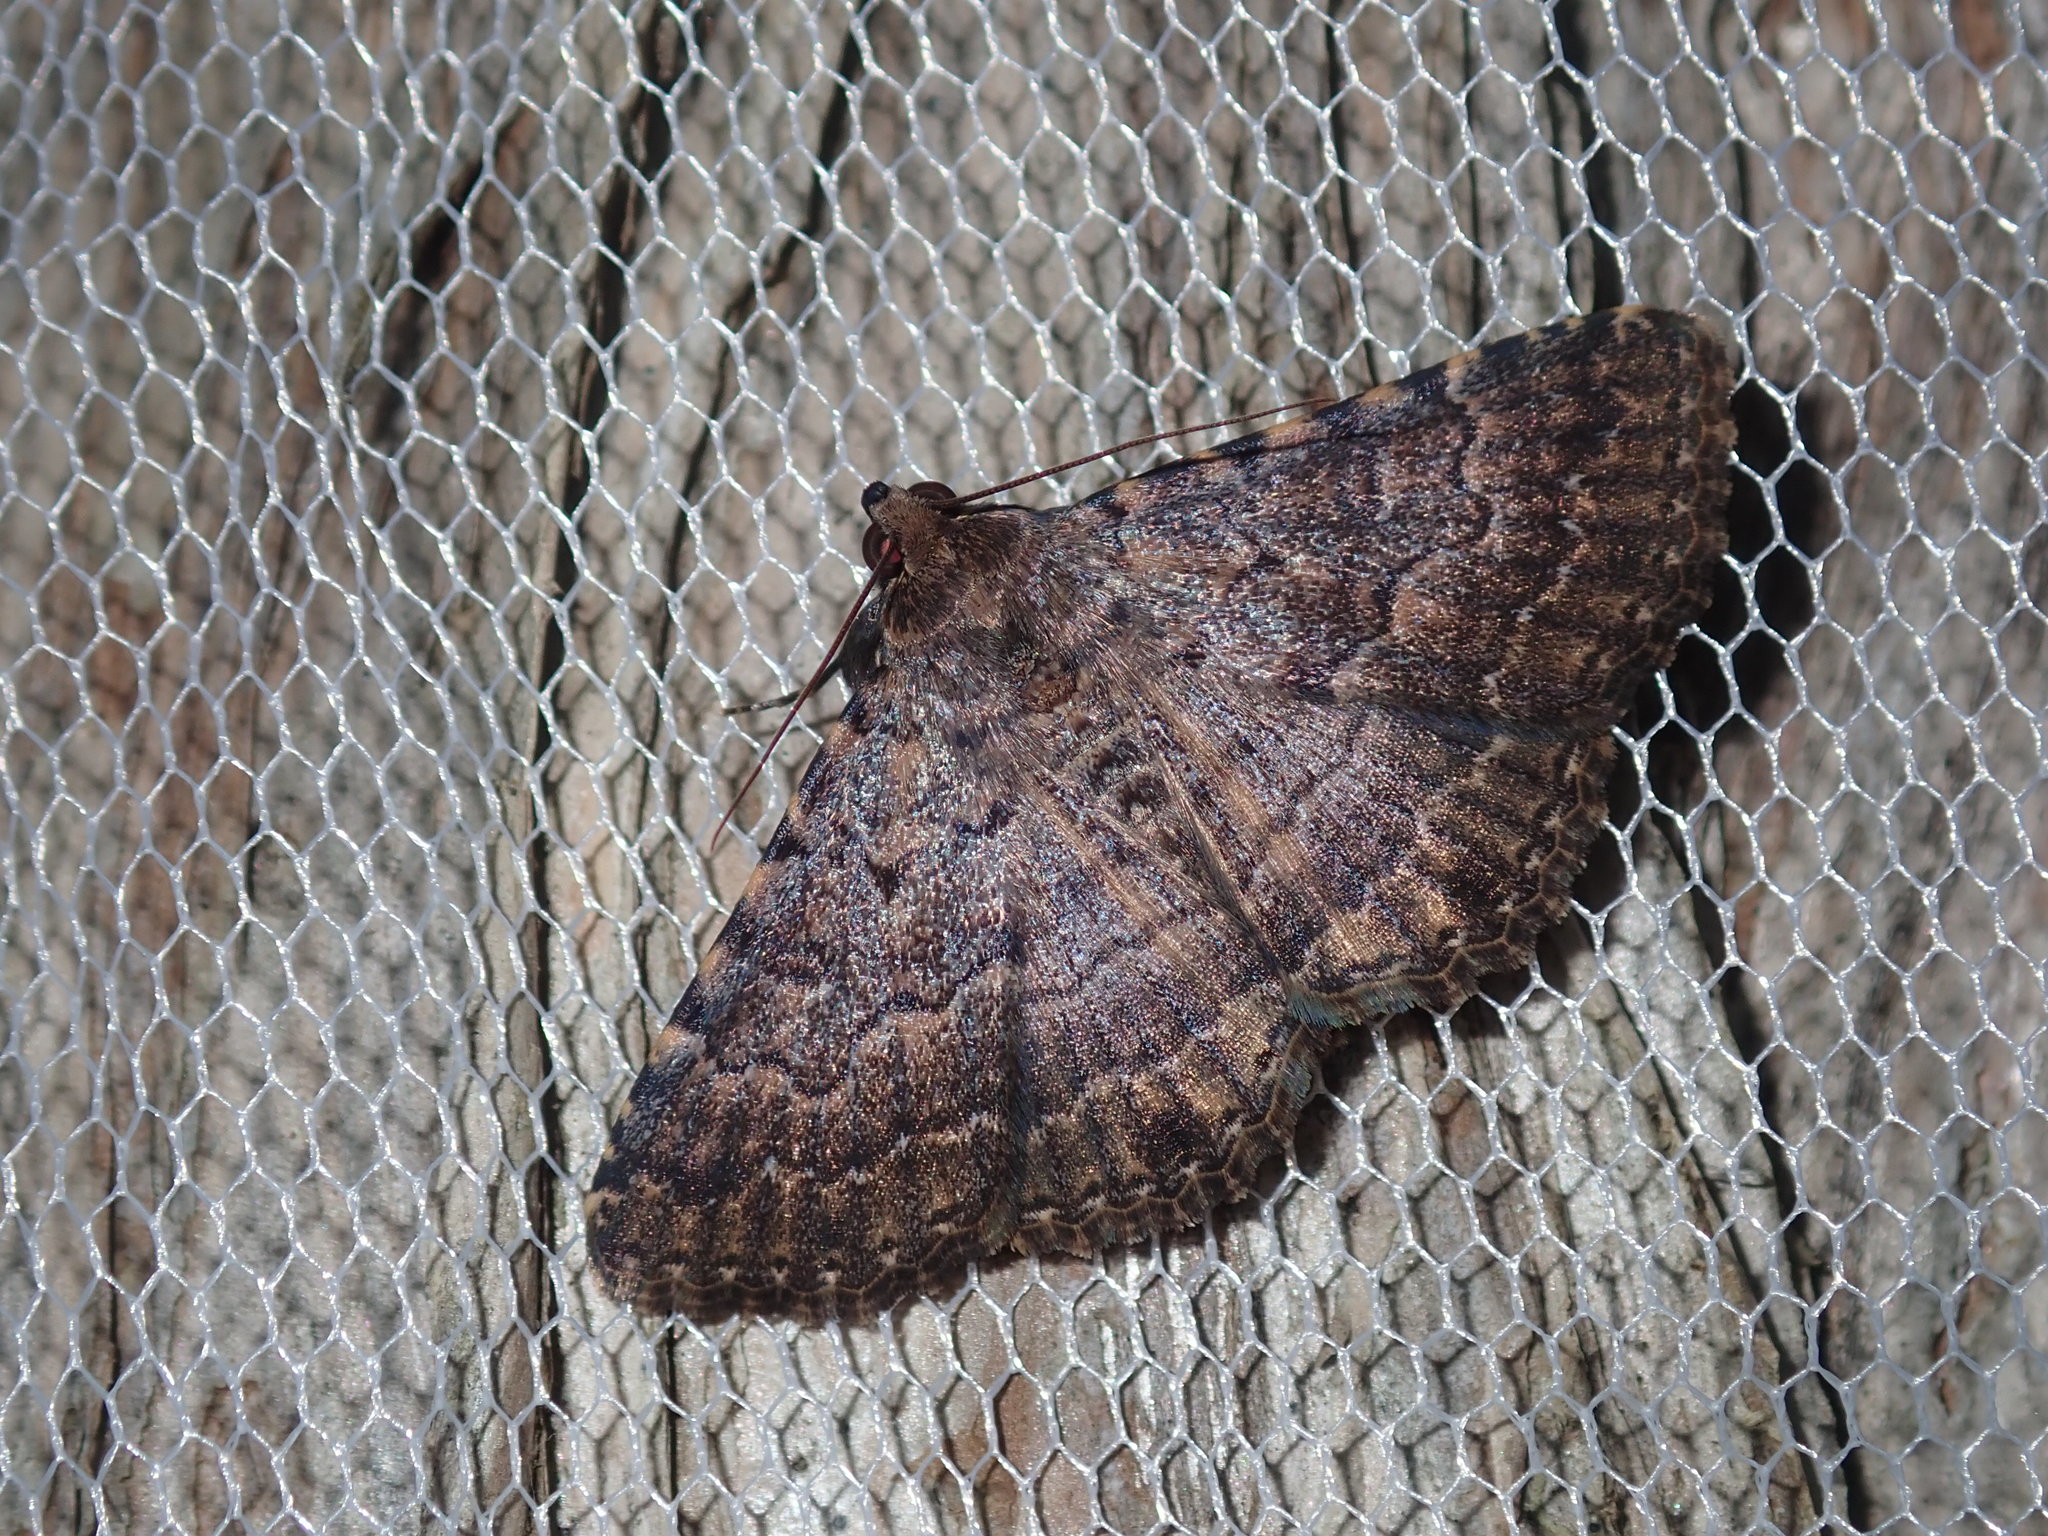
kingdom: Animalia
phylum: Arthropoda
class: Insecta
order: Lepidoptera
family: Erebidae
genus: Diatenes
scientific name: Diatenes aglossoides
